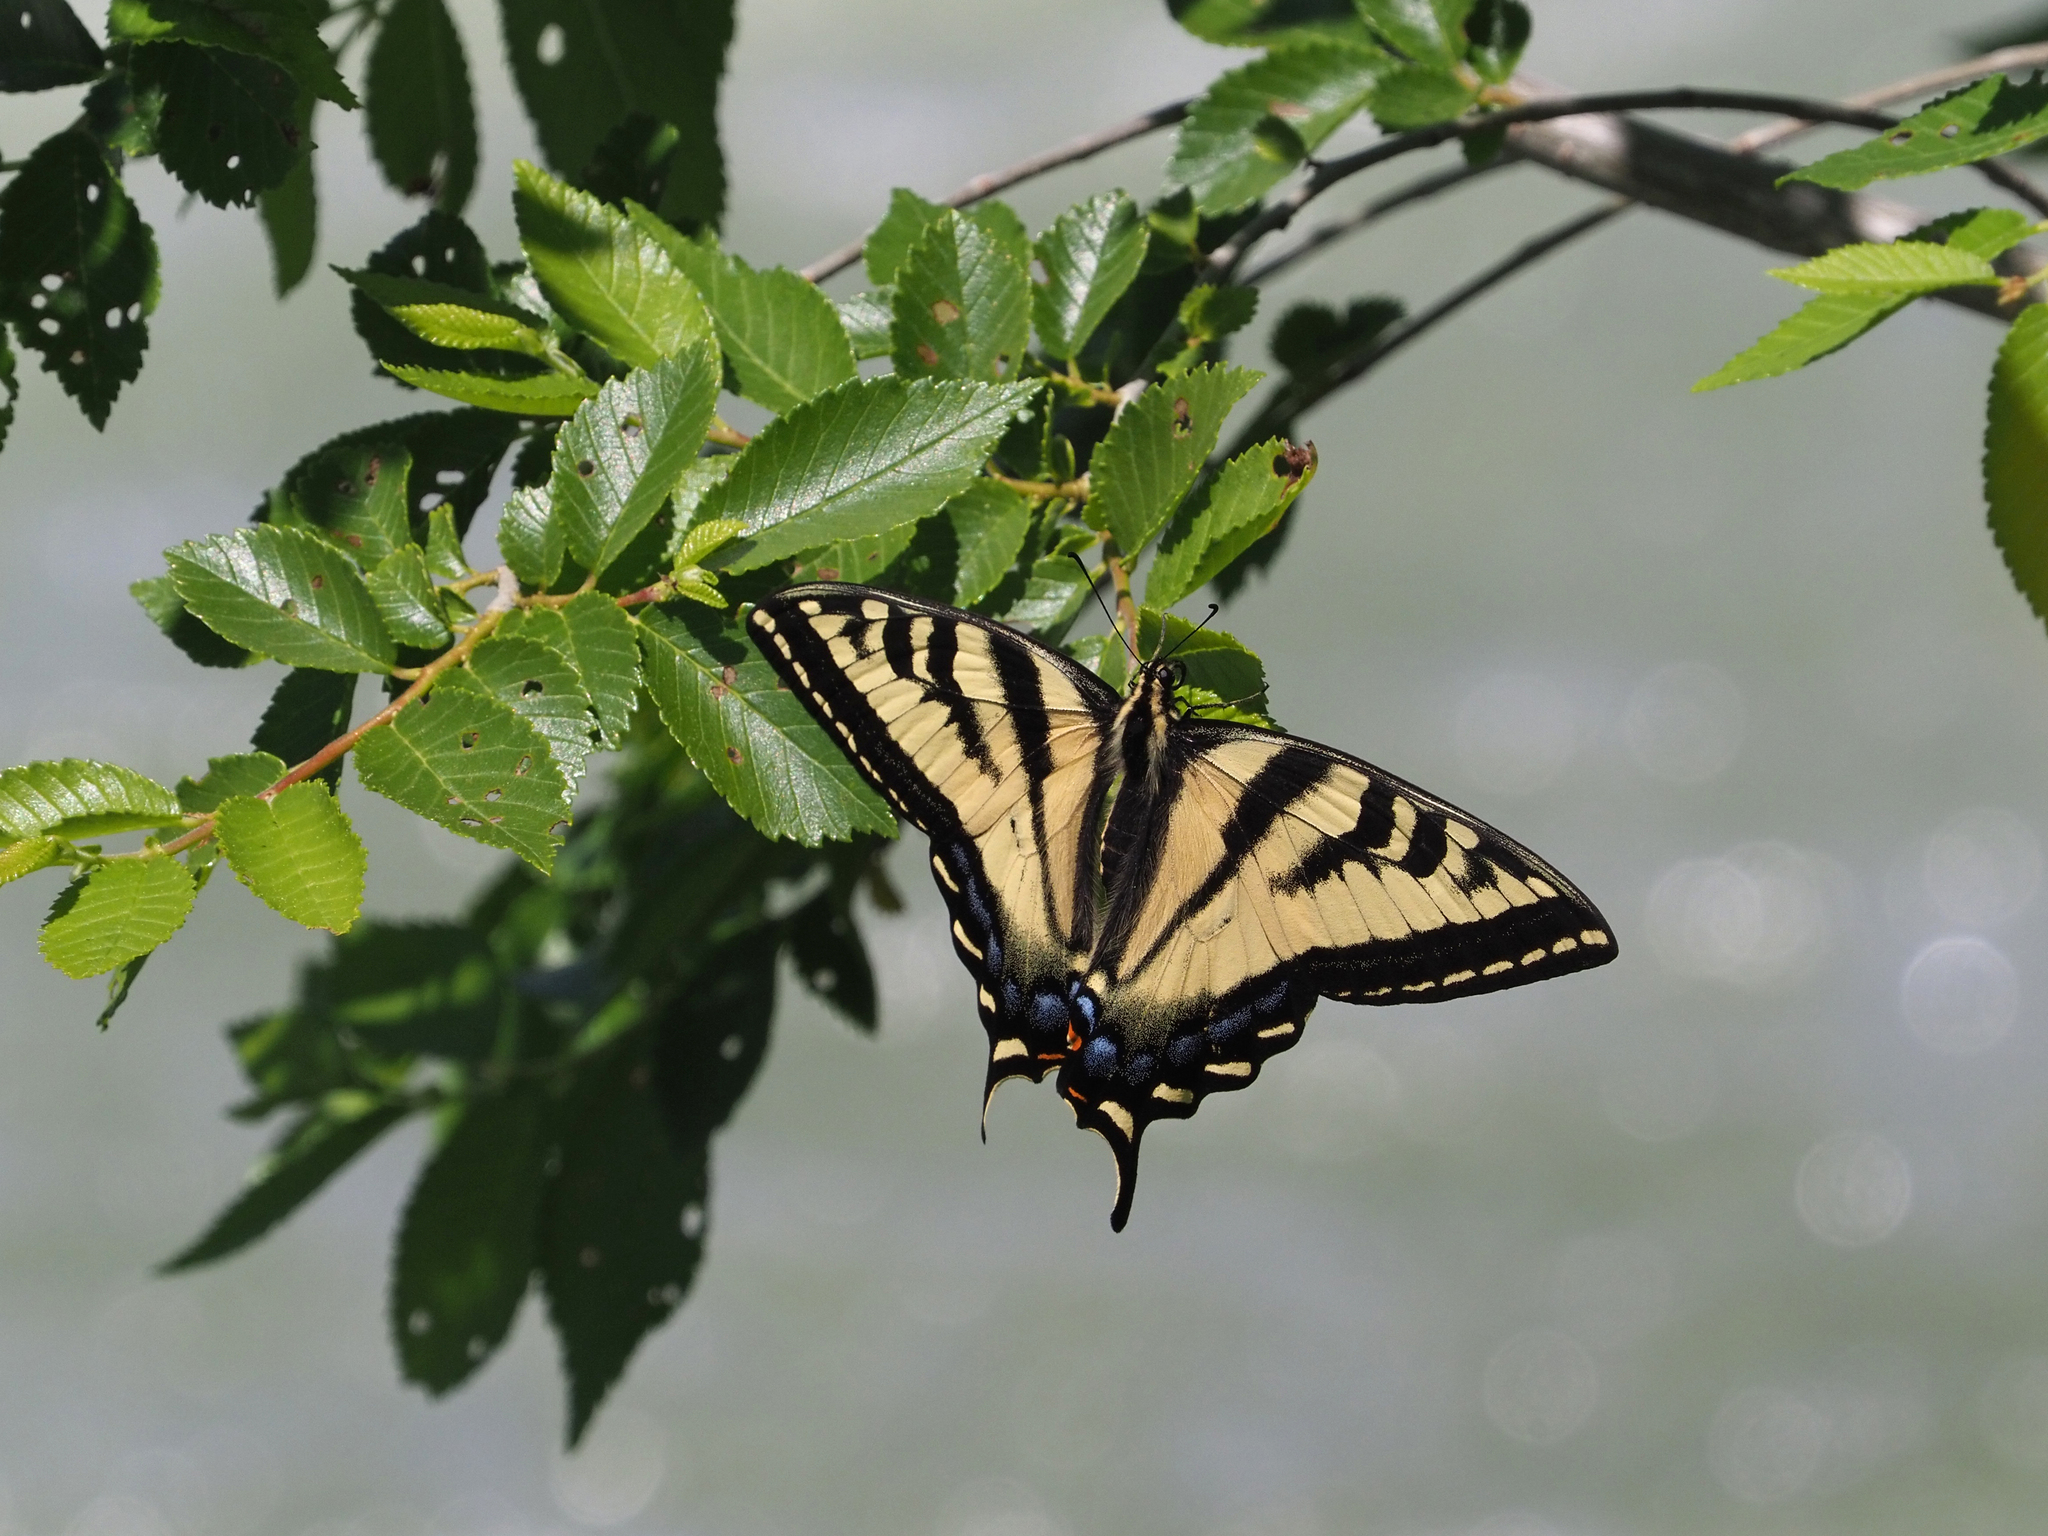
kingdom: Animalia
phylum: Arthropoda
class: Insecta
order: Lepidoptera
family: Papilionidae
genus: Papilio
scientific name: Papilio rutulus
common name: Western tiger swallowtail
